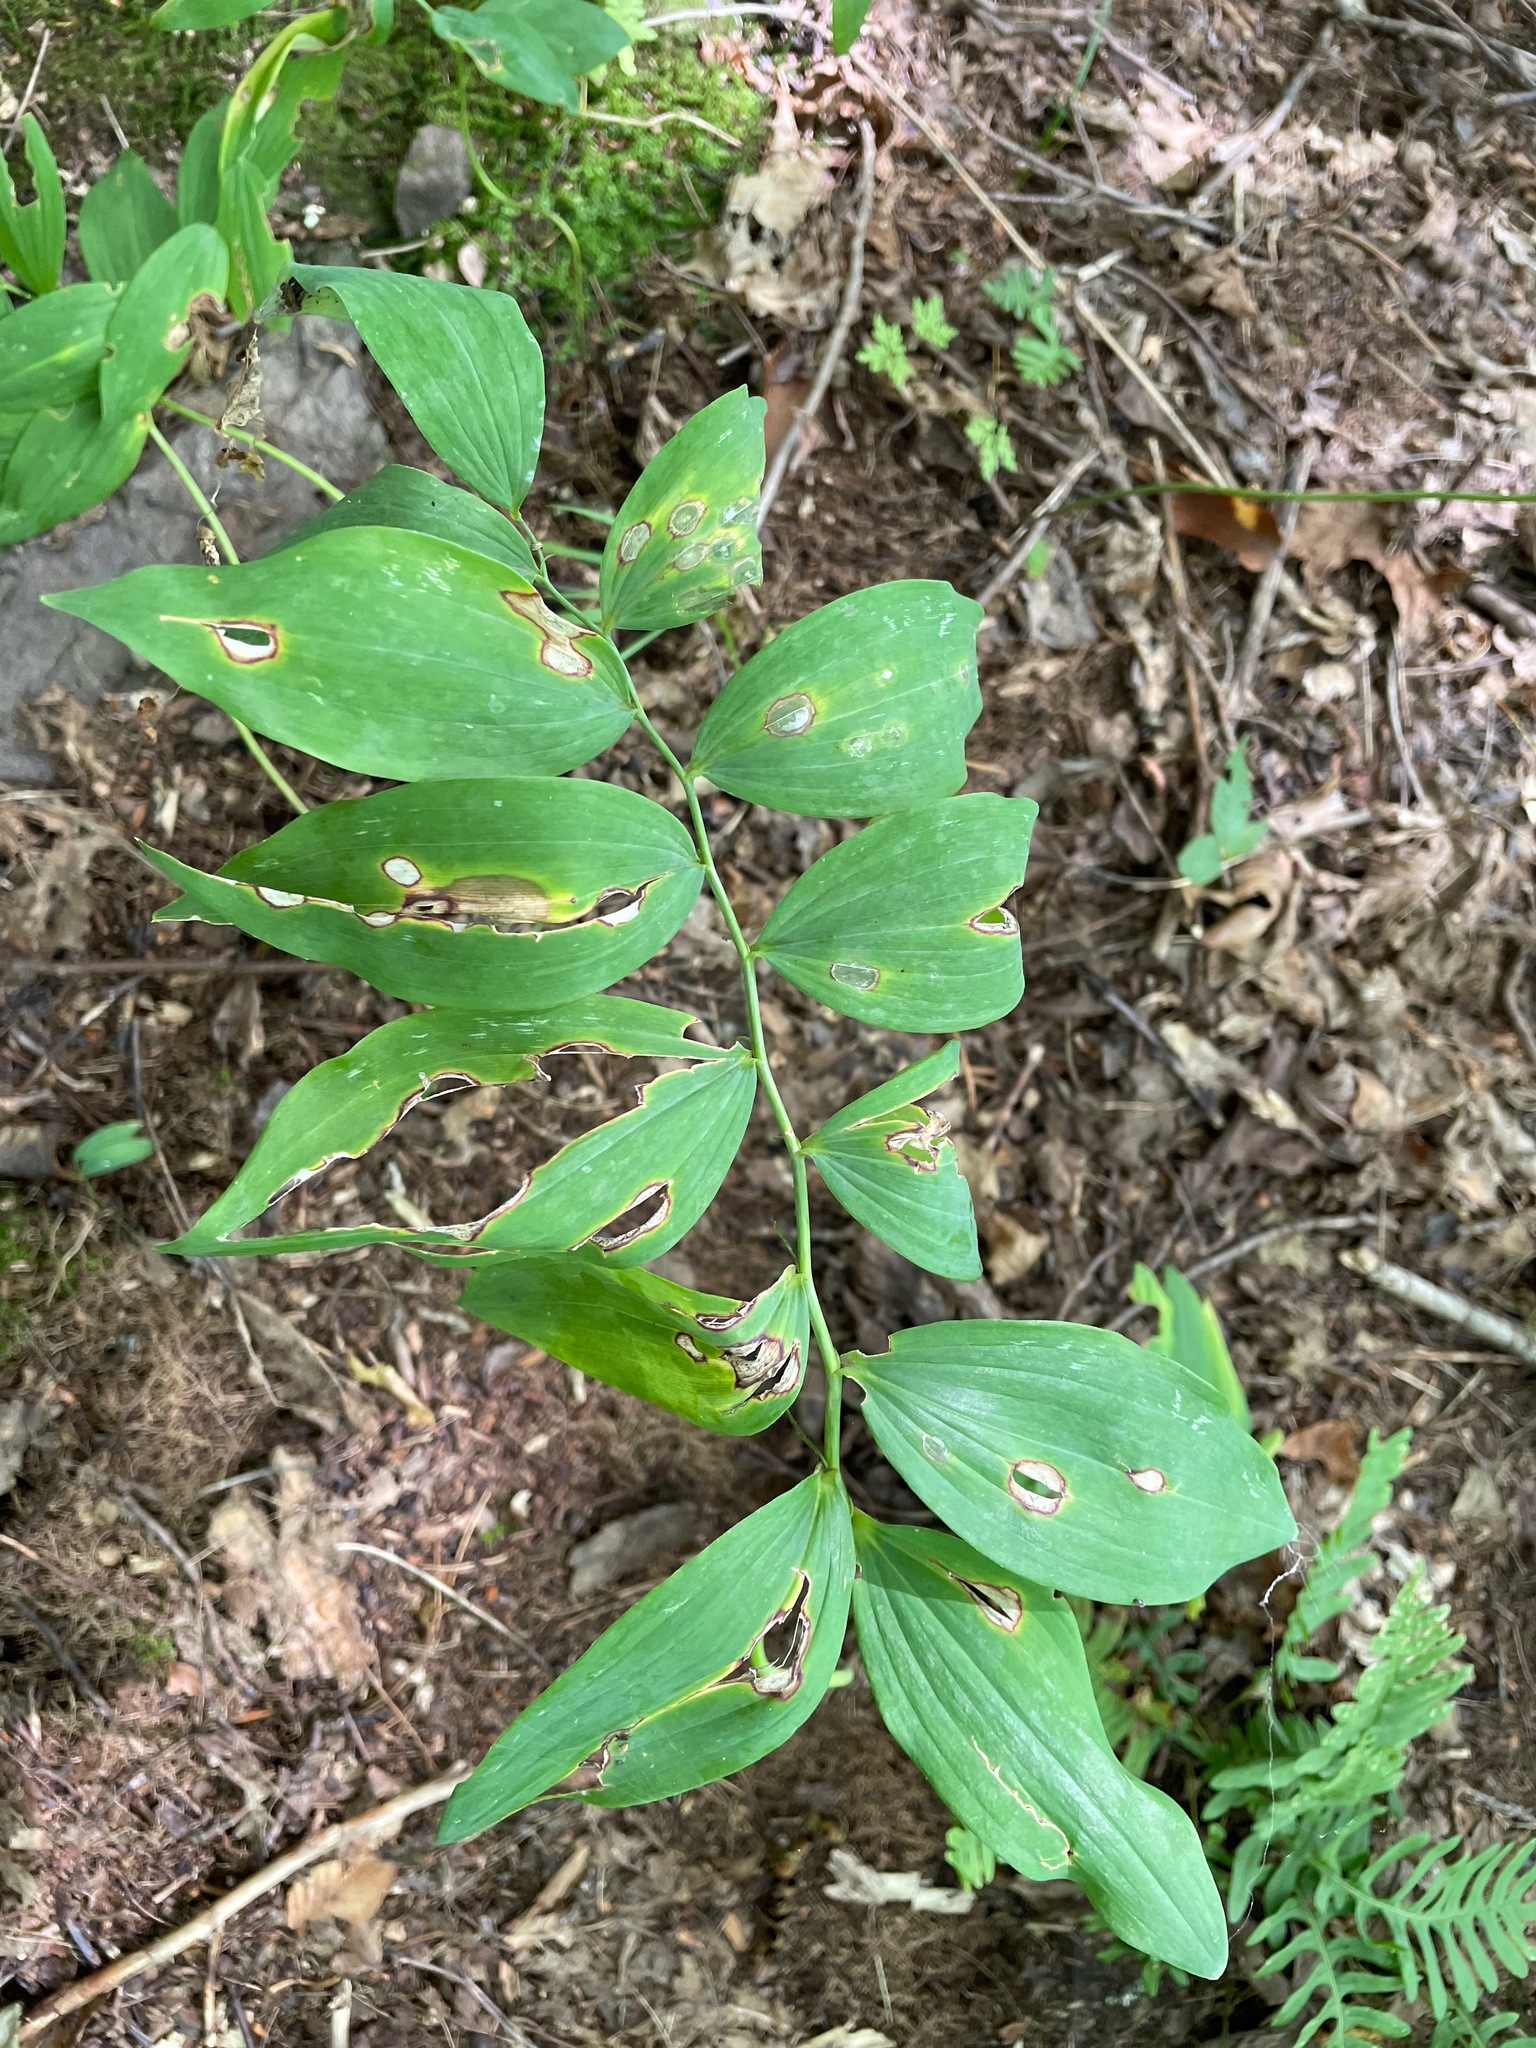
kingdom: Plantae
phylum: Tracheophyta
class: Liliopsida
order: Asparagales
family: Asparagaceae
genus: Polygonatum
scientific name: Polygonatum pubescens
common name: Downy solomon's seal
